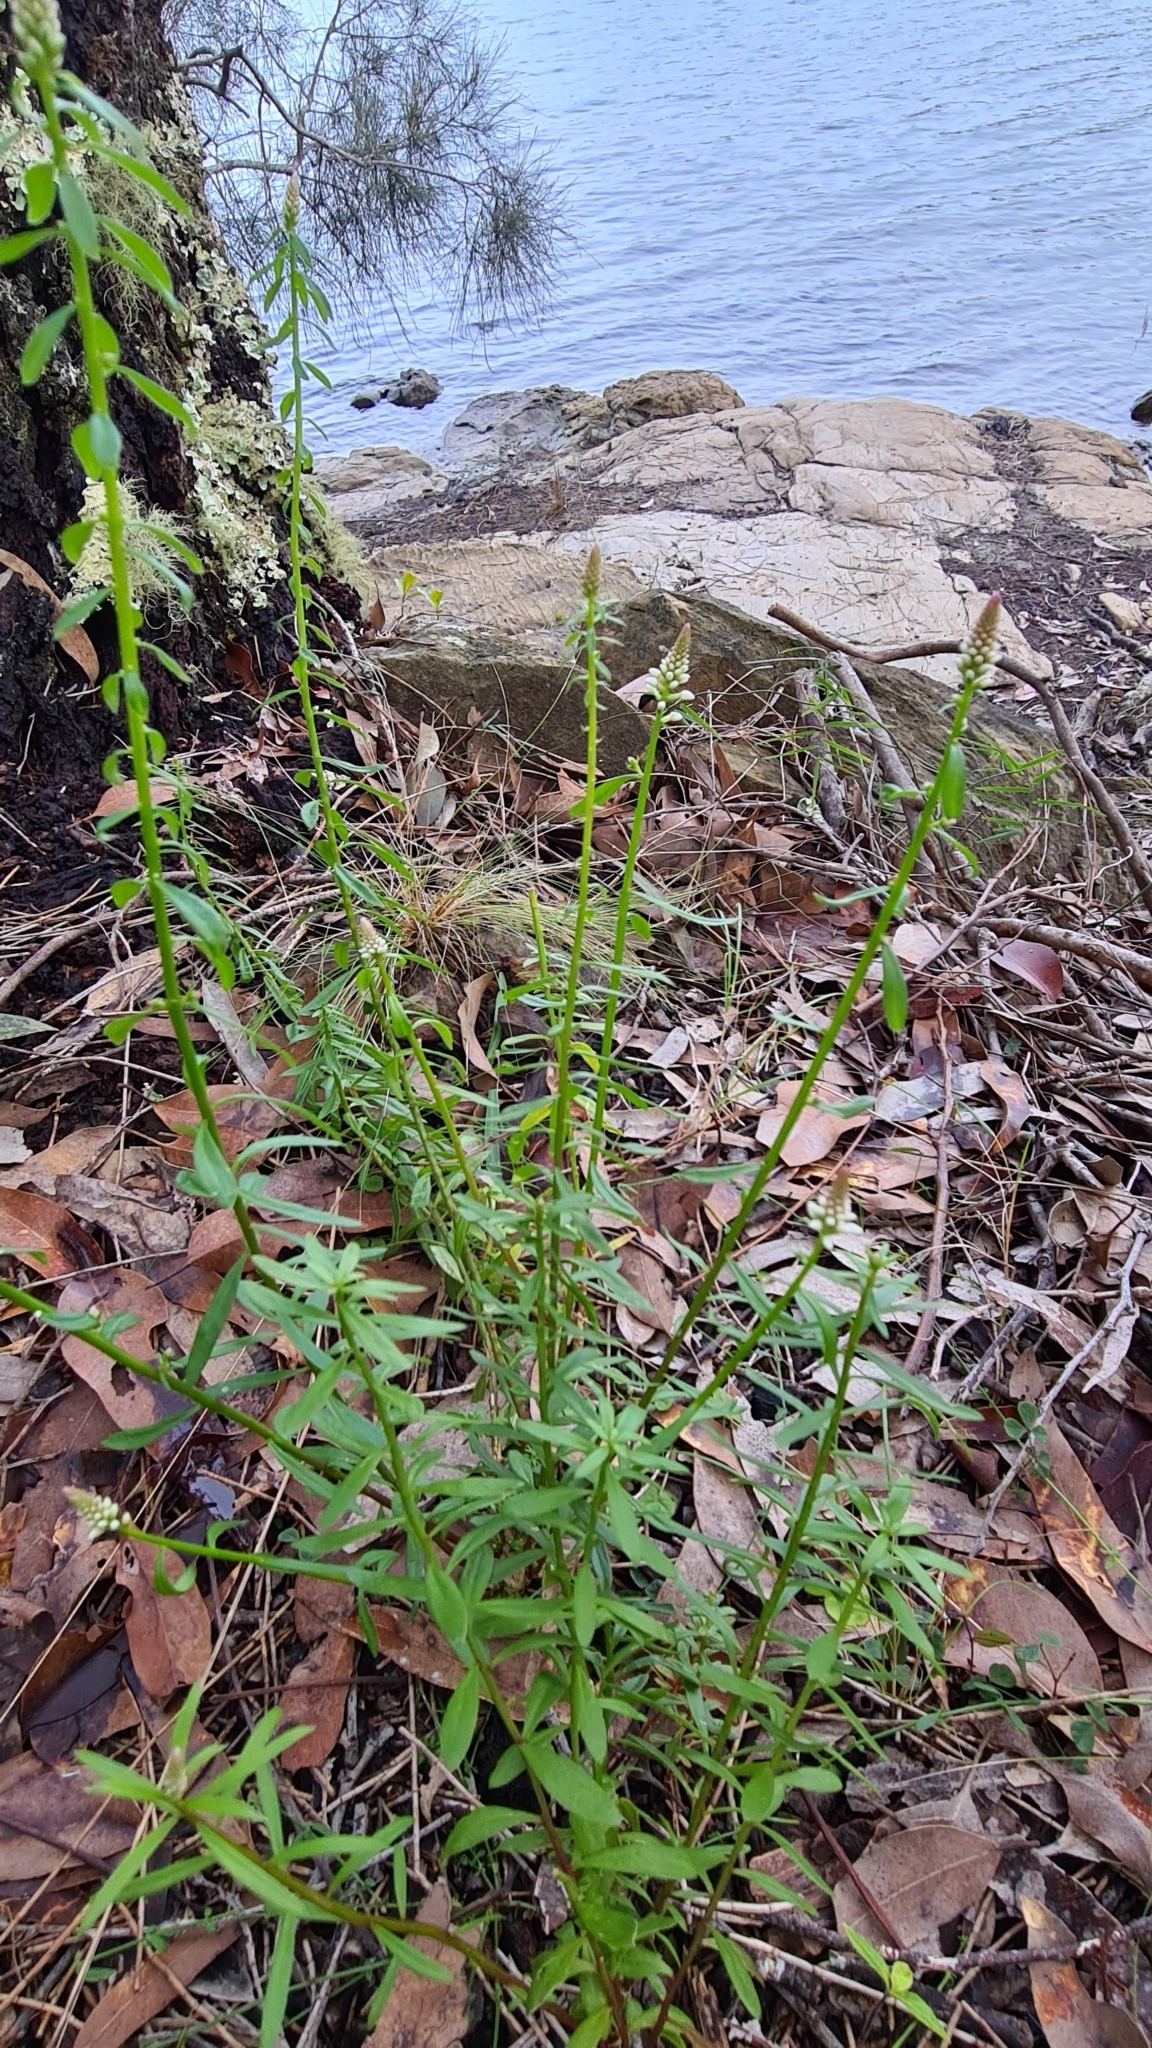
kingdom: Plantae
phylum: Tracheophyta
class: Magnoliopsida
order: Celastrales
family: Celastraceae
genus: Stackhousia
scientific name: Stackhousia monogyna
